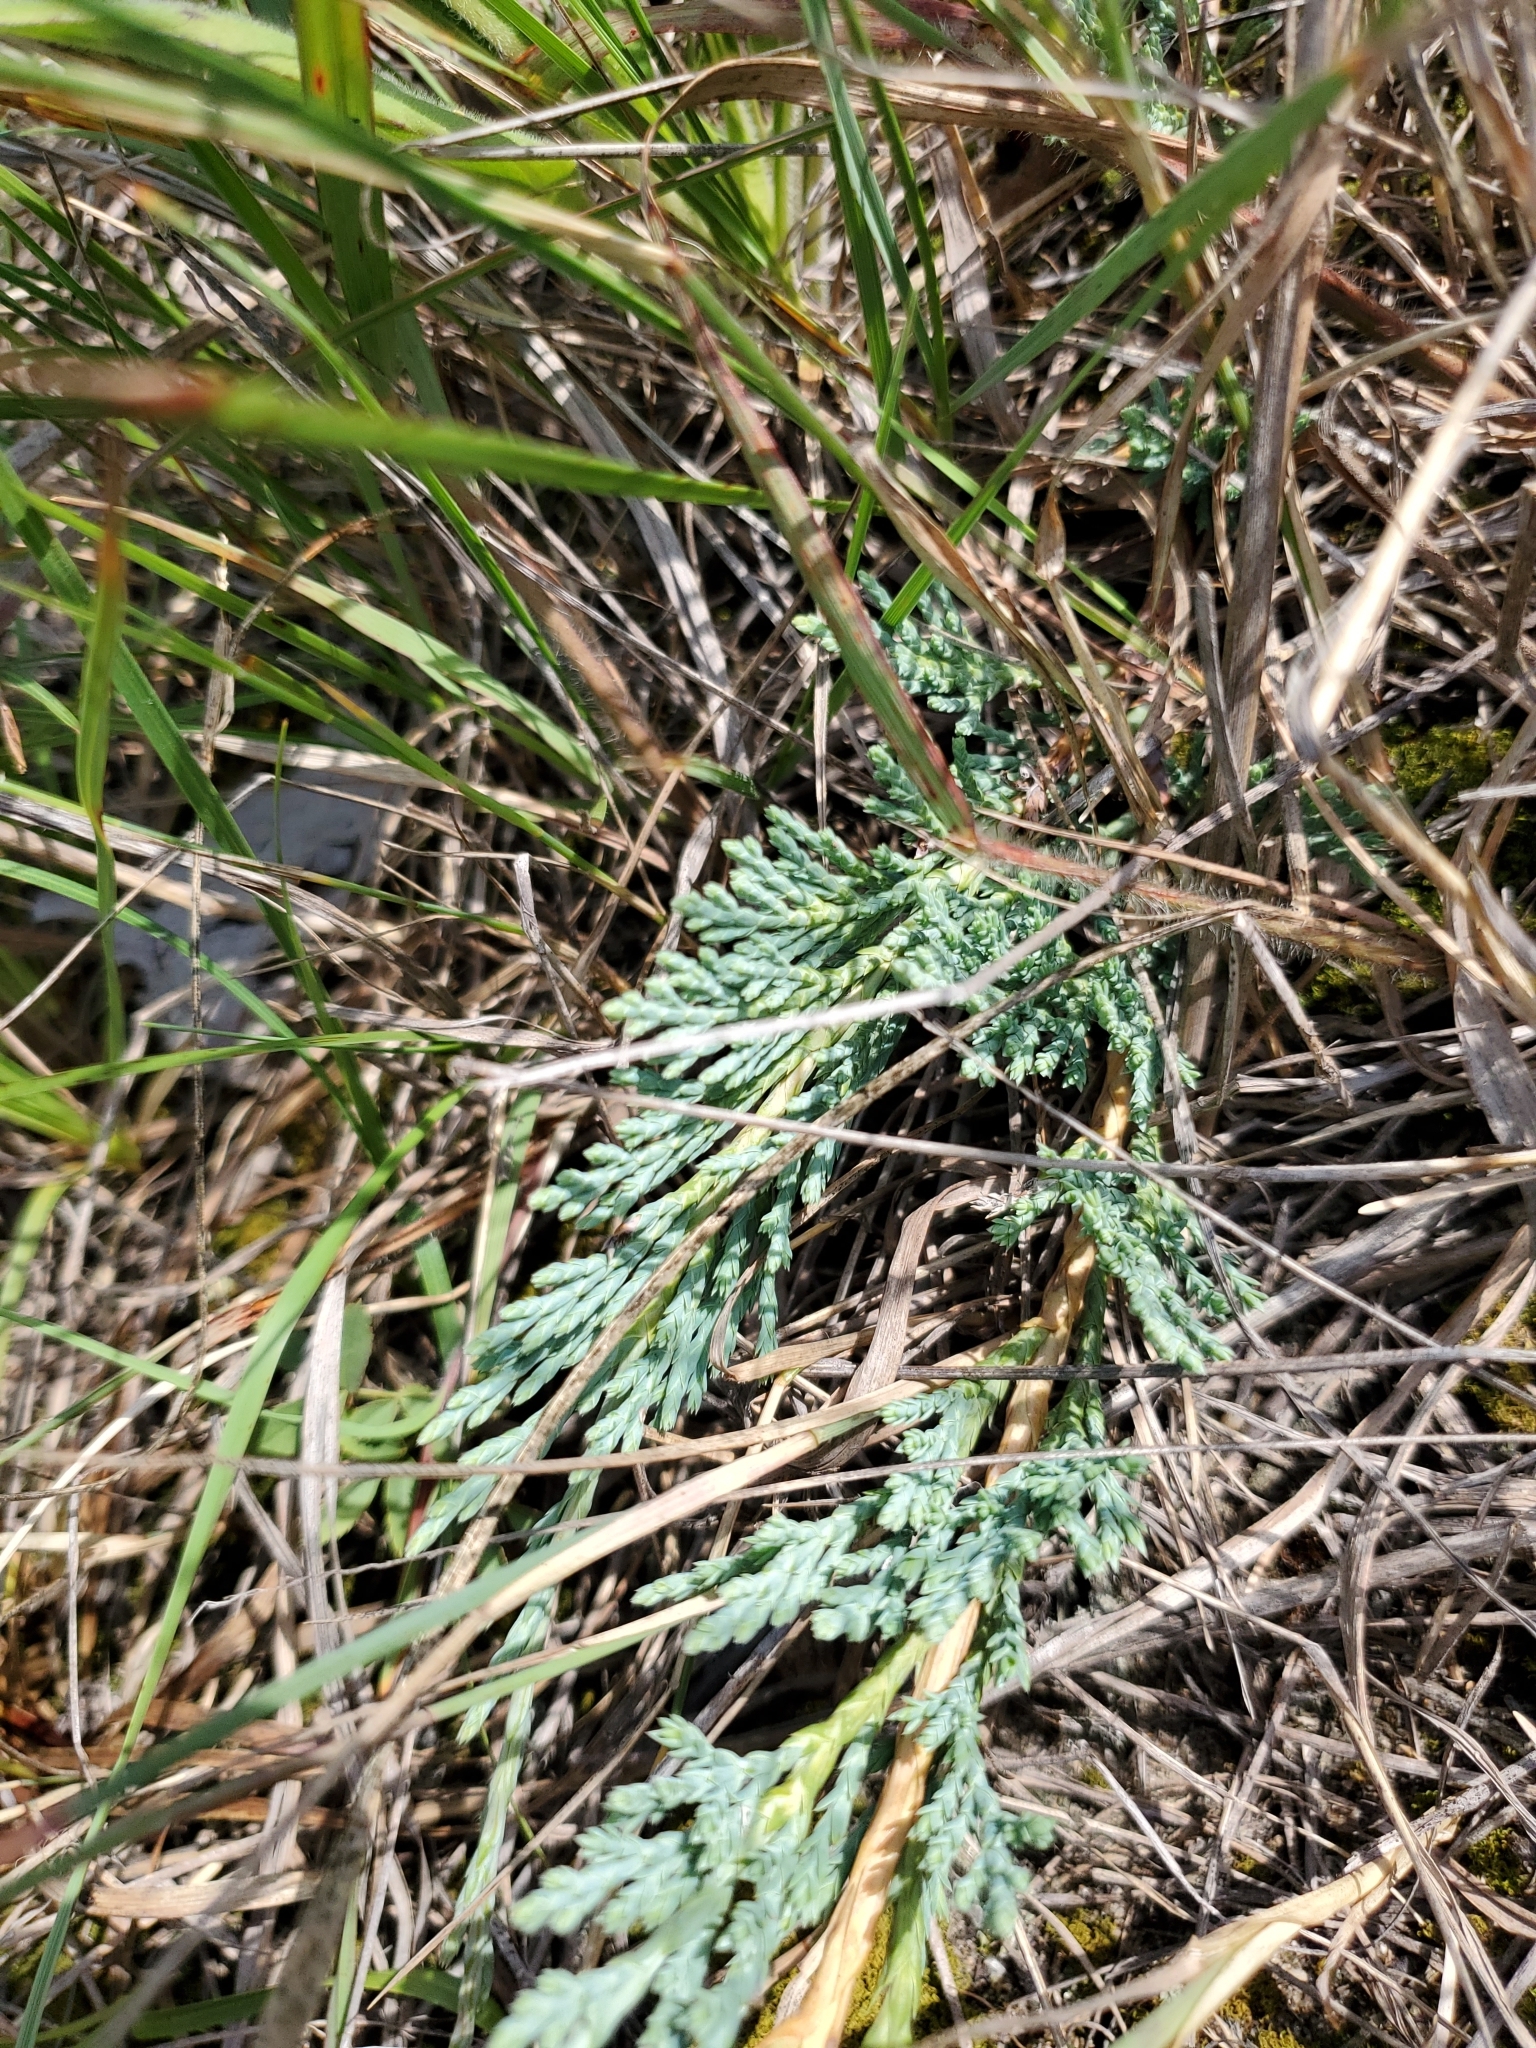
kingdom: Plantae
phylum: Tracheophyta
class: Pinopsida
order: Pinales
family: Cupressaceae
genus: Juniperus
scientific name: Juniperus horizontalis
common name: Creeping juniper
